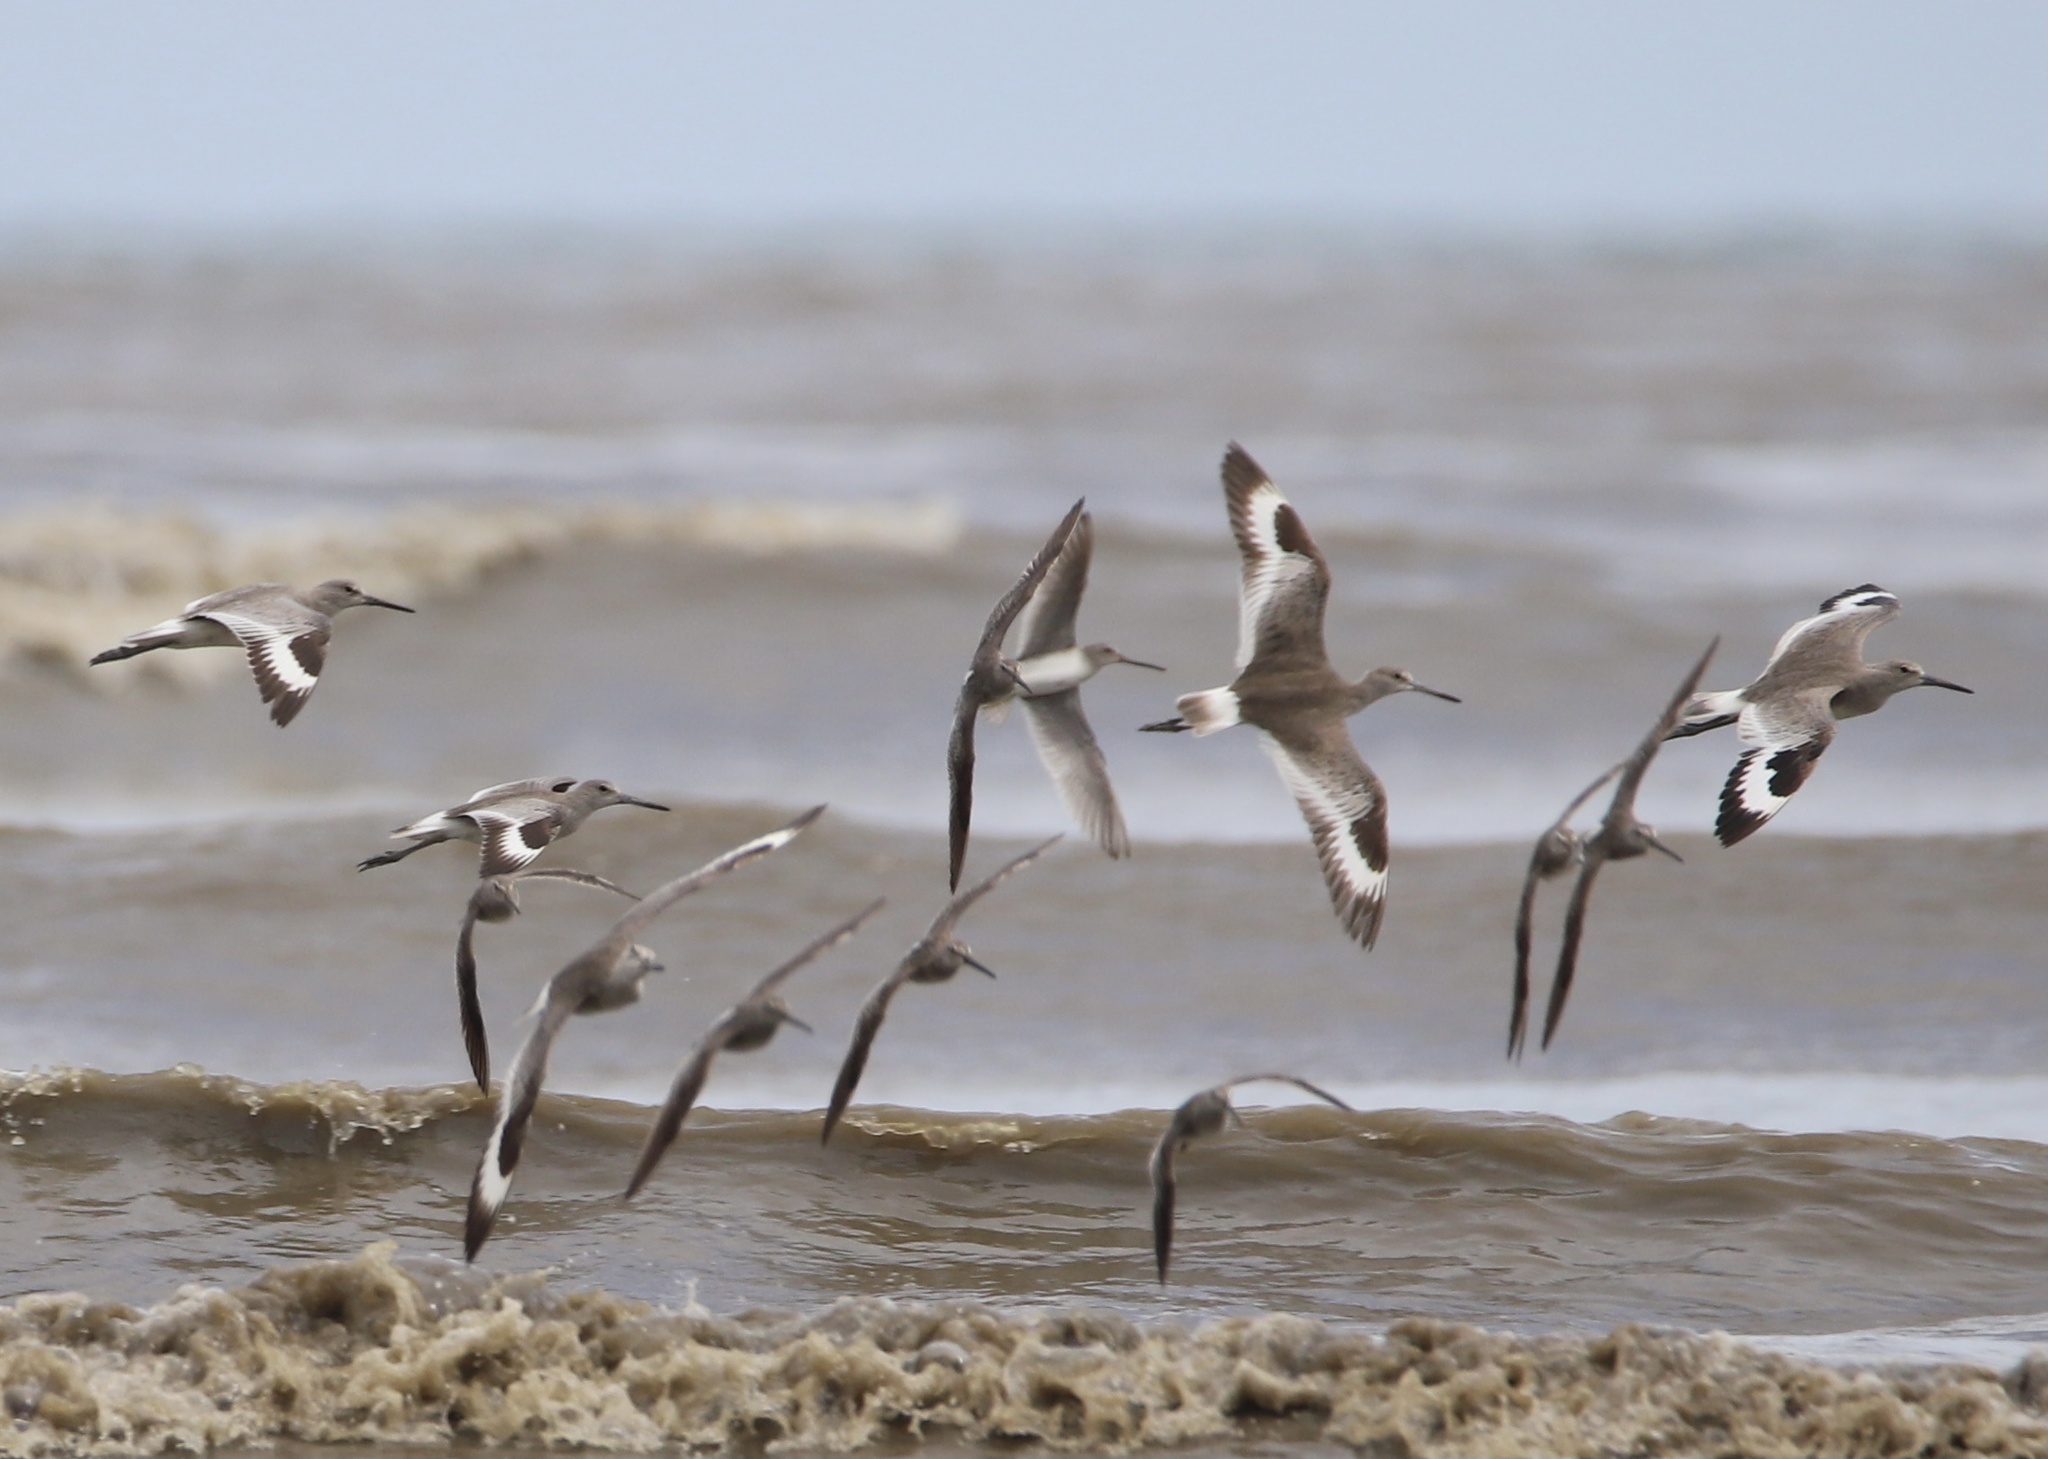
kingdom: Animalia
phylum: Chordata
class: Aves
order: Charadriiformes
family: Scolopacidae
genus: Tringa
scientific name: Tringa semipalmata
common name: Willet
